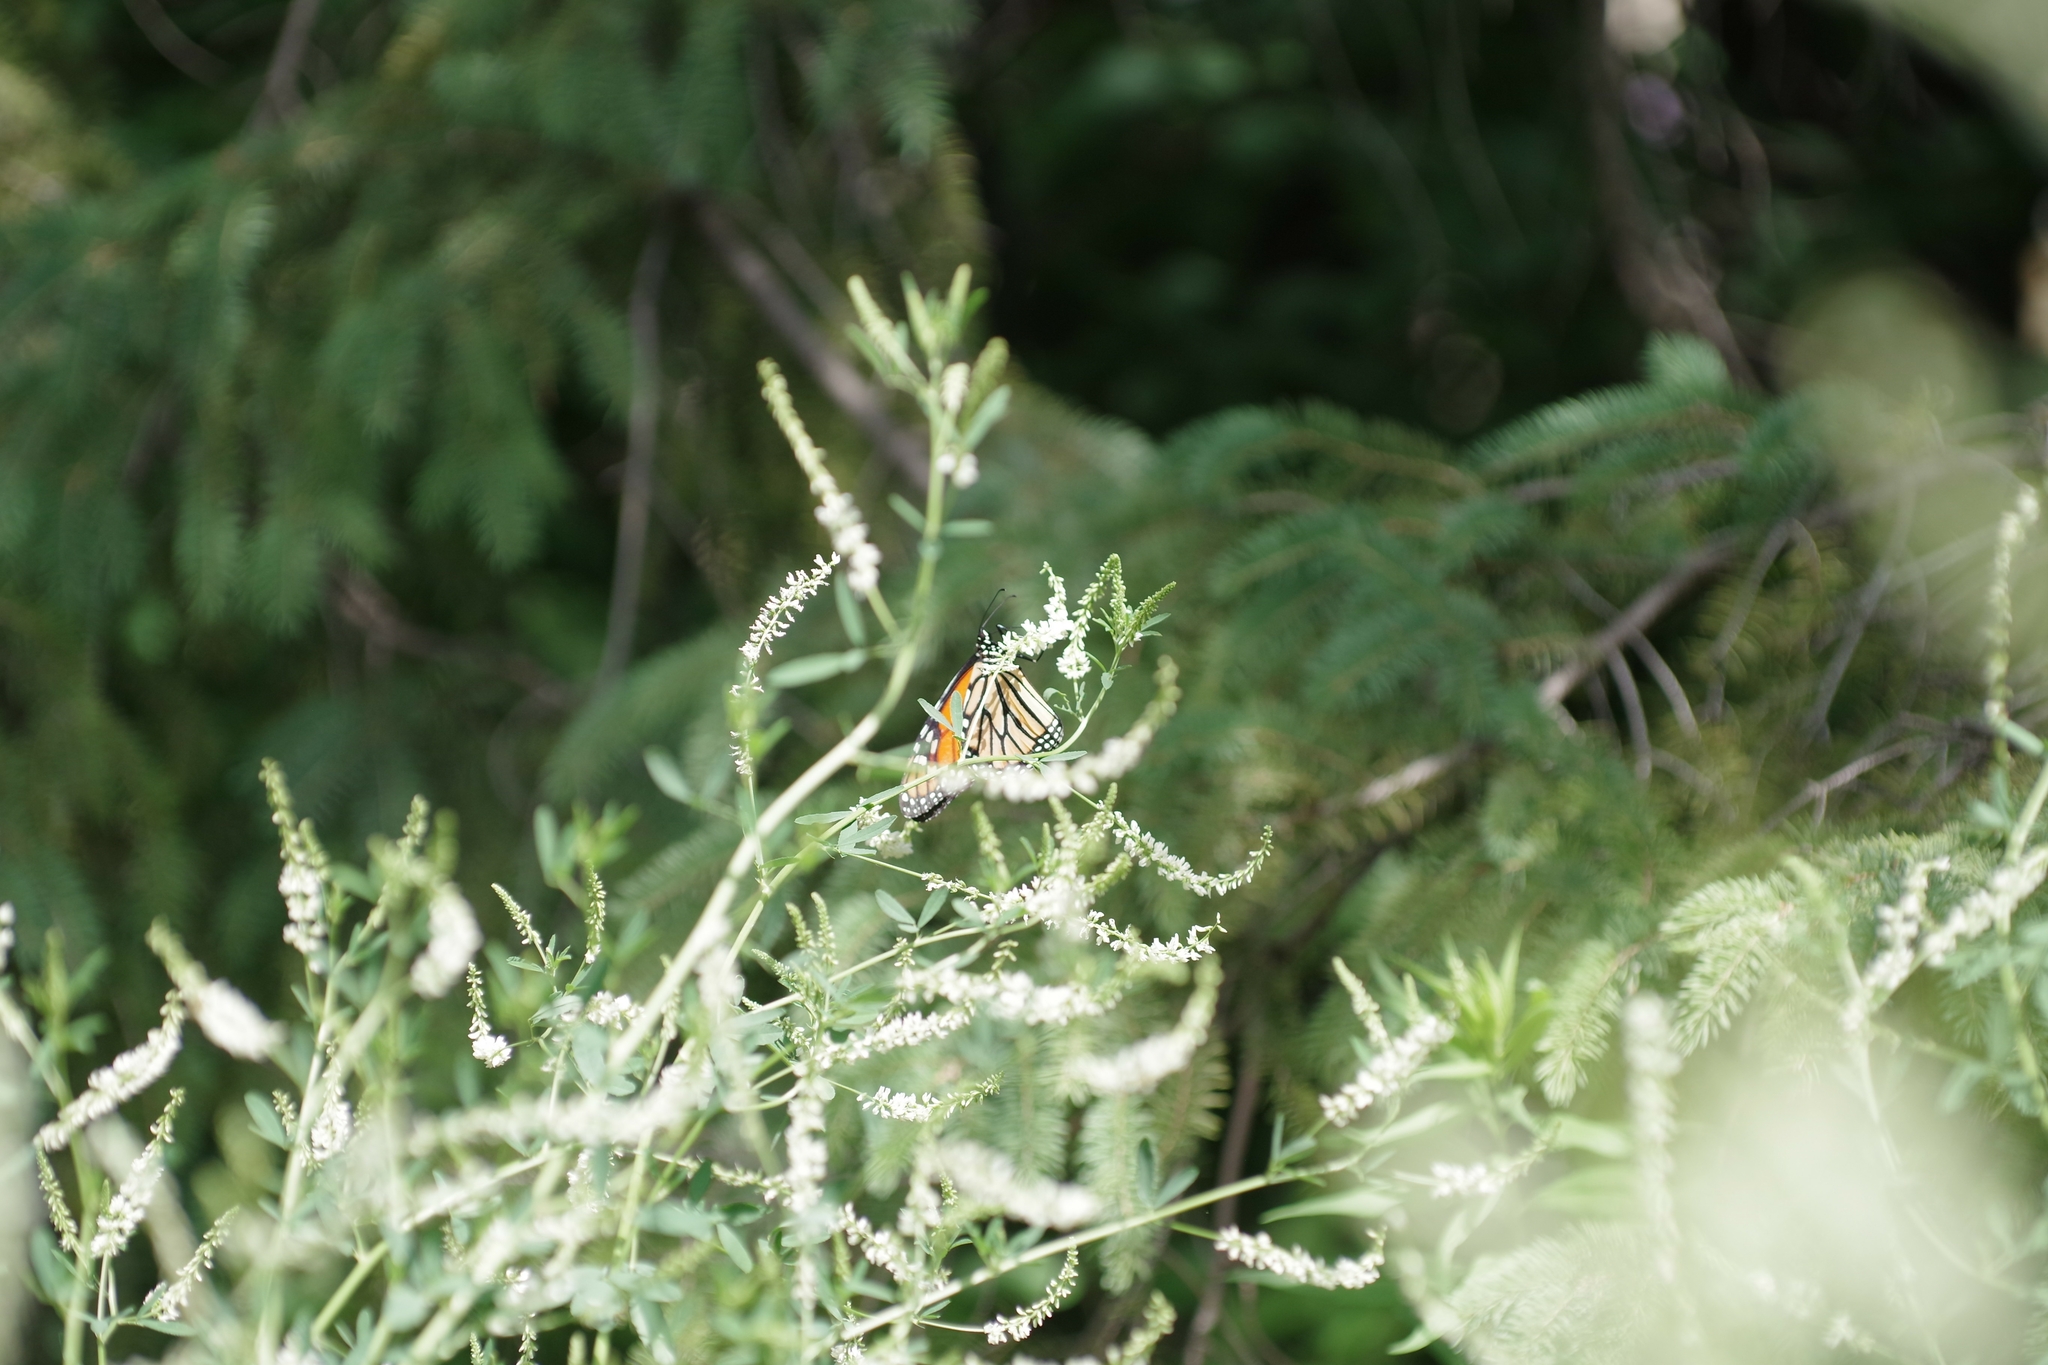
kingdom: Plantae
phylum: Tracheophyta
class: Magnoliopsida
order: Fabales
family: Fabaceae
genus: Melilotus
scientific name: Melilotus albus
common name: White melilot
